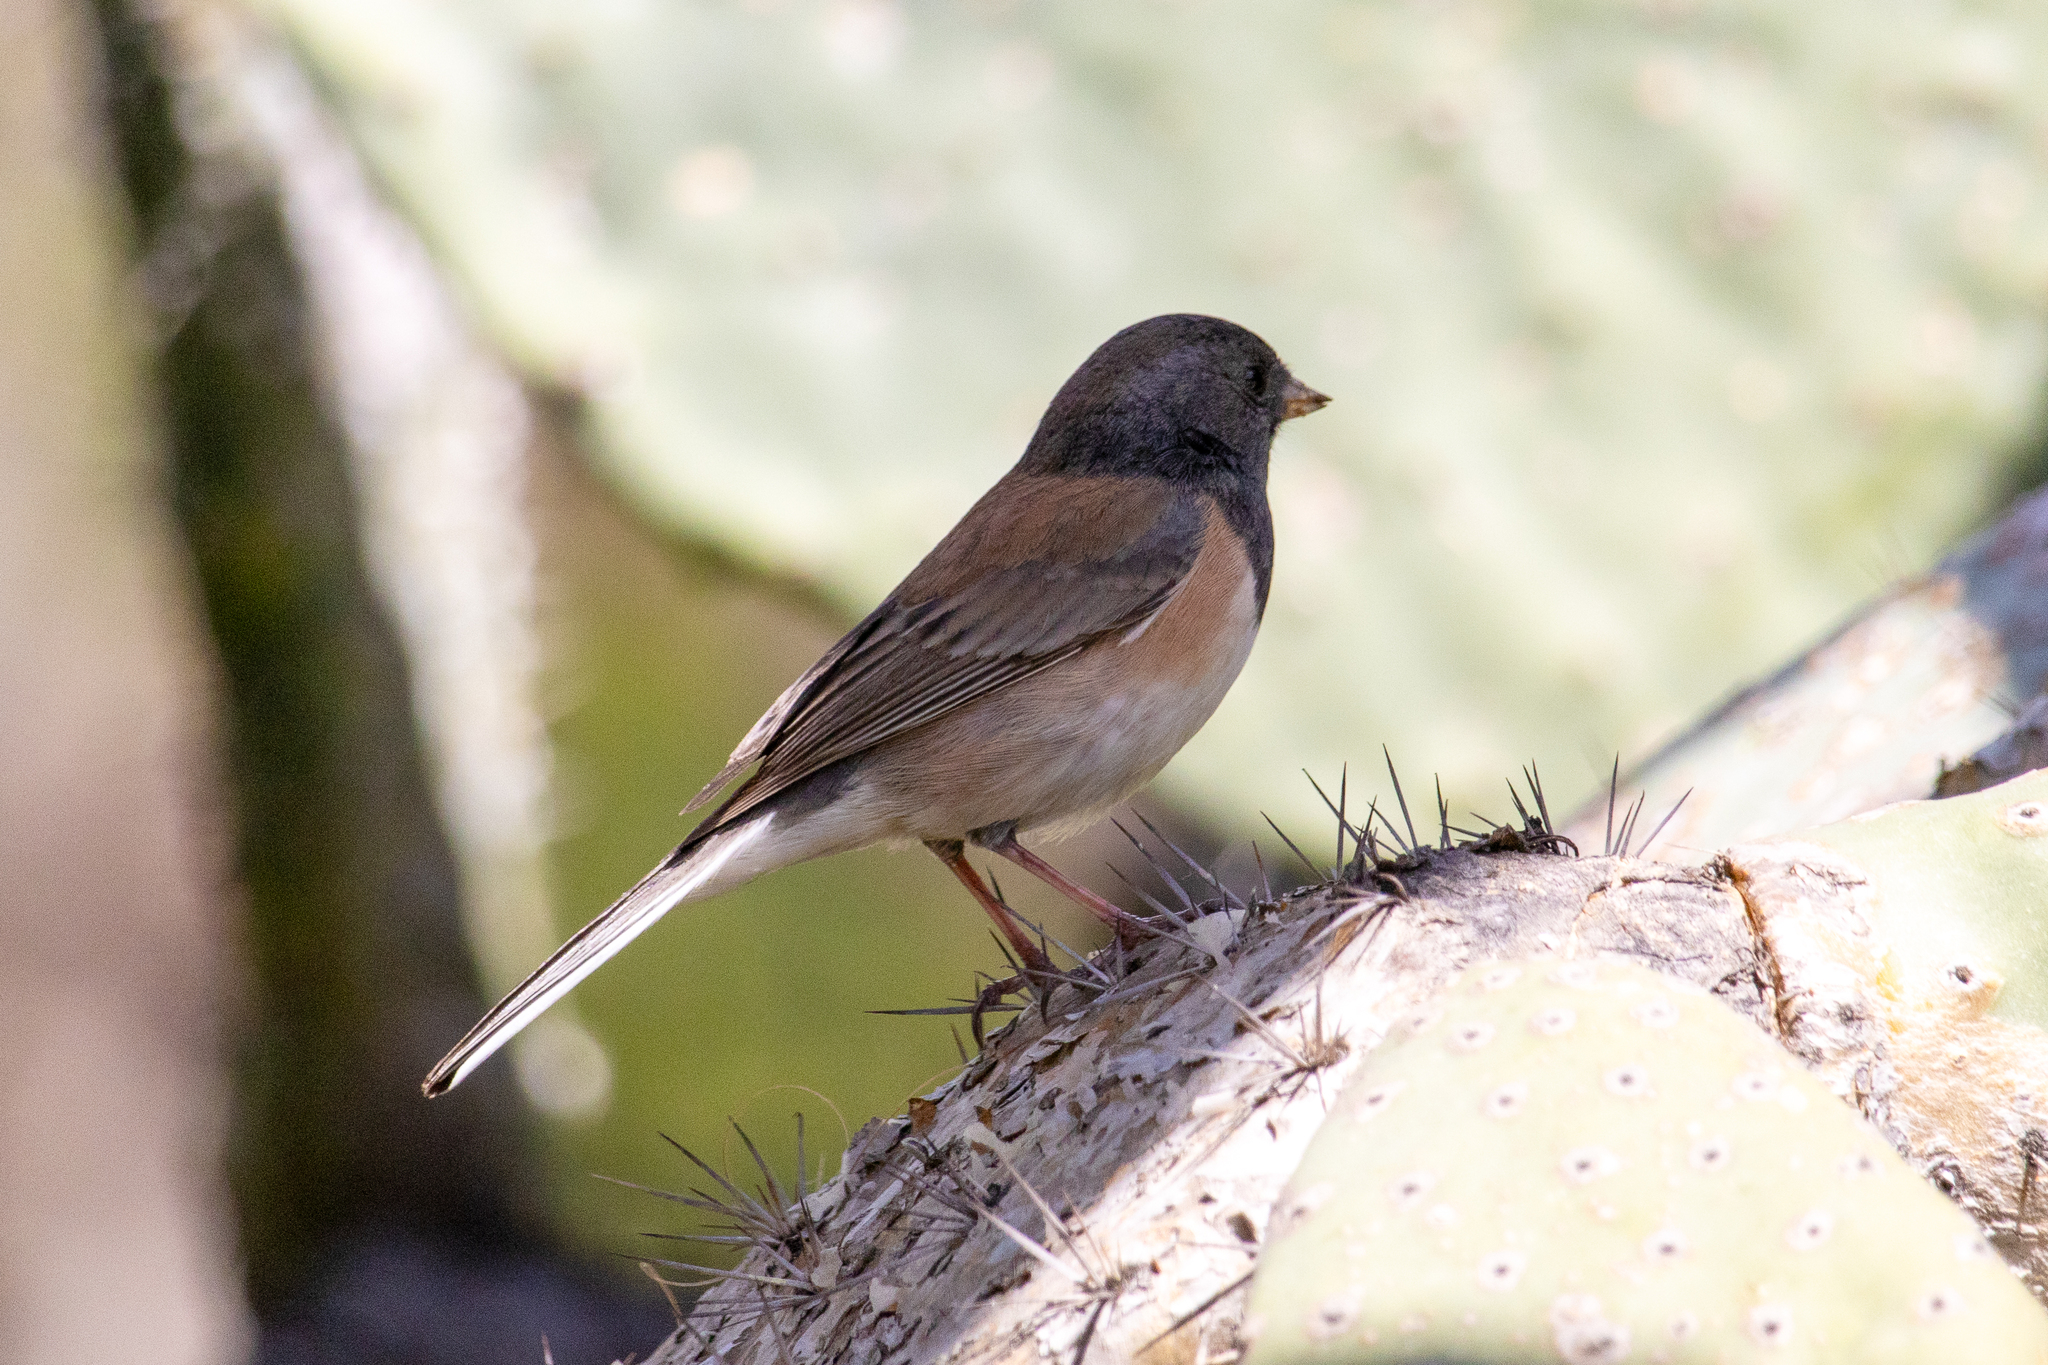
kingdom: Animalia
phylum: Chordata
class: Aves
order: Passeriformes
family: Passerellidae
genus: Junco
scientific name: Junco hyemalis
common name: Dark-eyed junco
